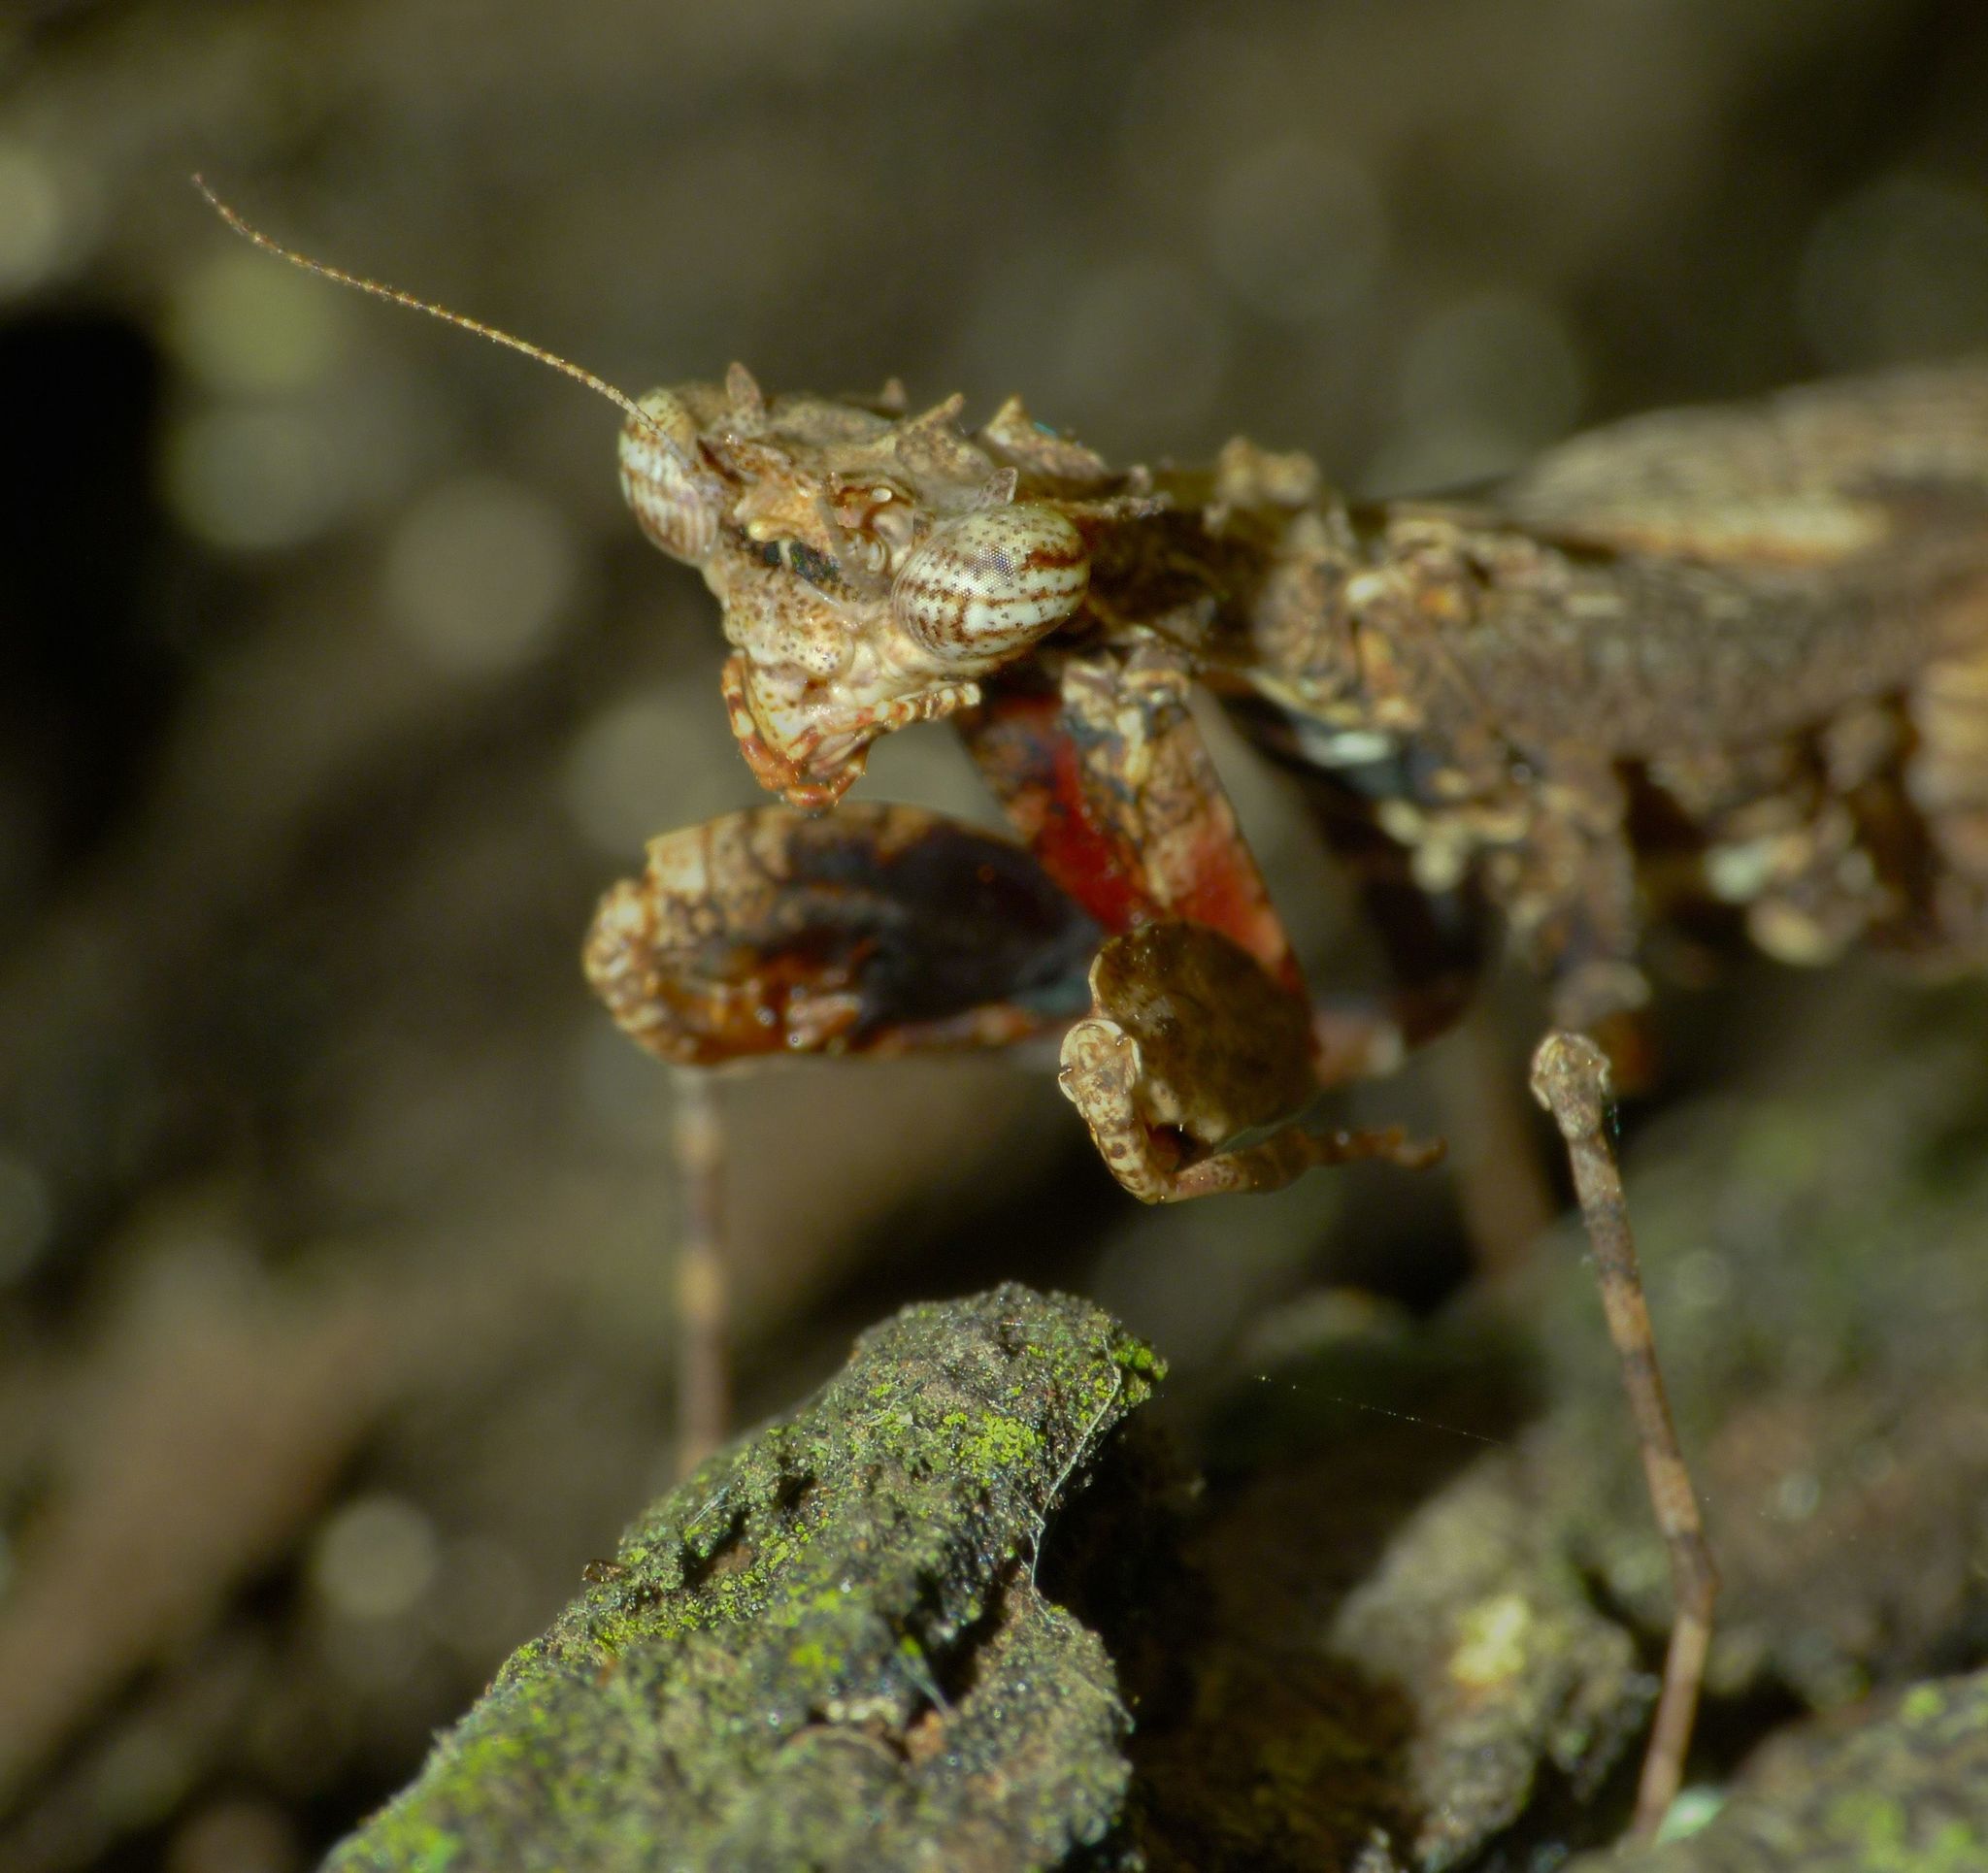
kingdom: Animalia
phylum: Arthropoda
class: Insecta
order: Mantodea
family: Nanomantidae
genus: Metoxypilus
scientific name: Metoxypilus lobifrons
